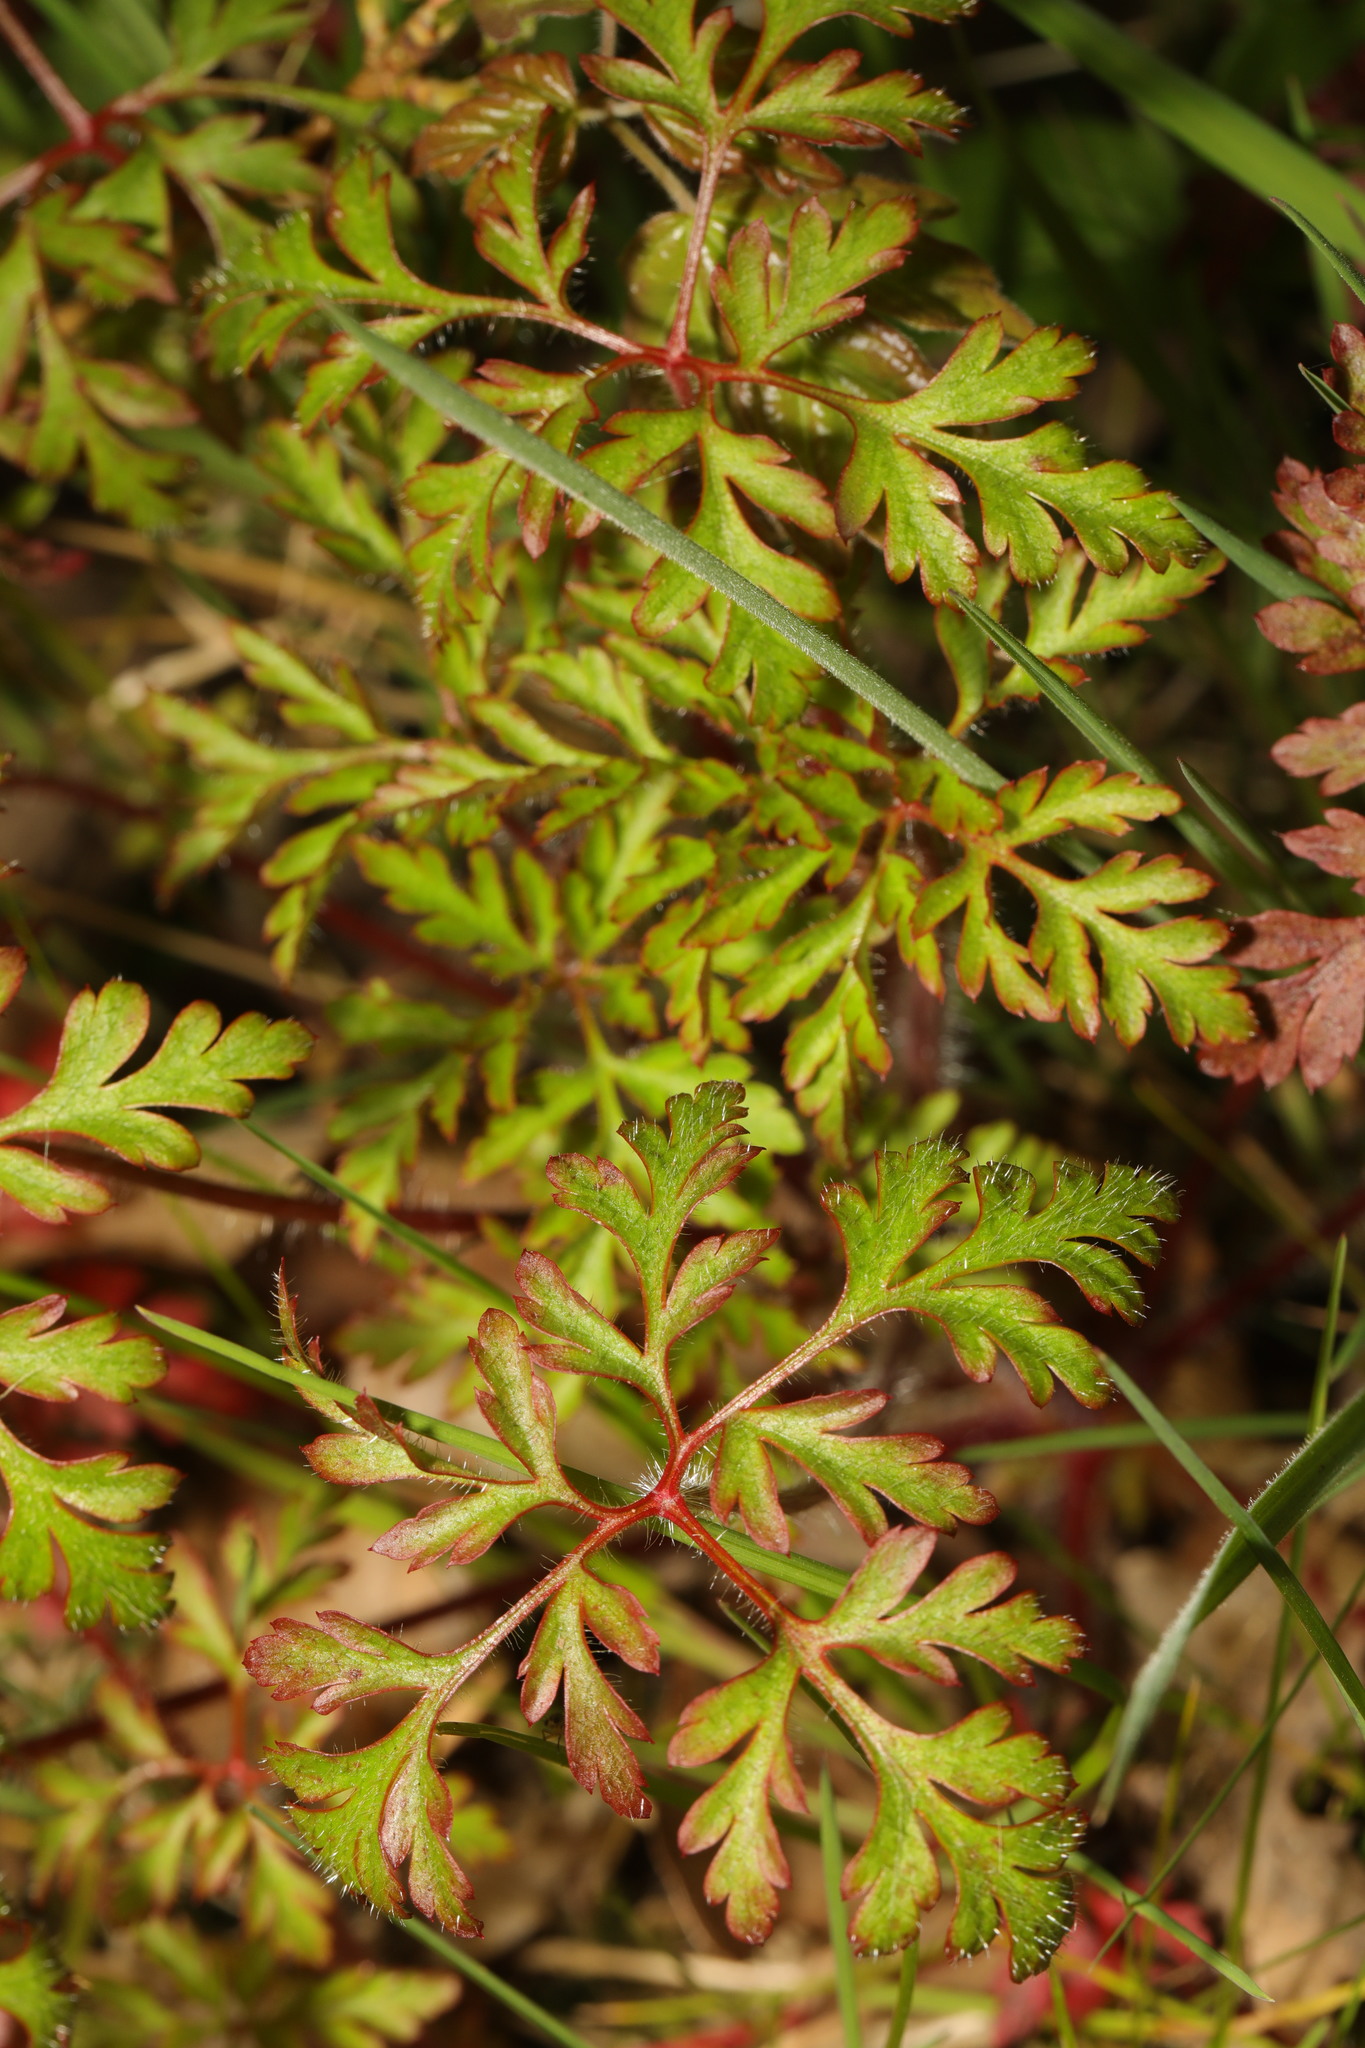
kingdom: Plantae
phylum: Tracheophyta
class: Magnoliopsida
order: Geraniales
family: Geraniaceae
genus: Geranium
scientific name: Geranium robertianum
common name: Herb-robert
